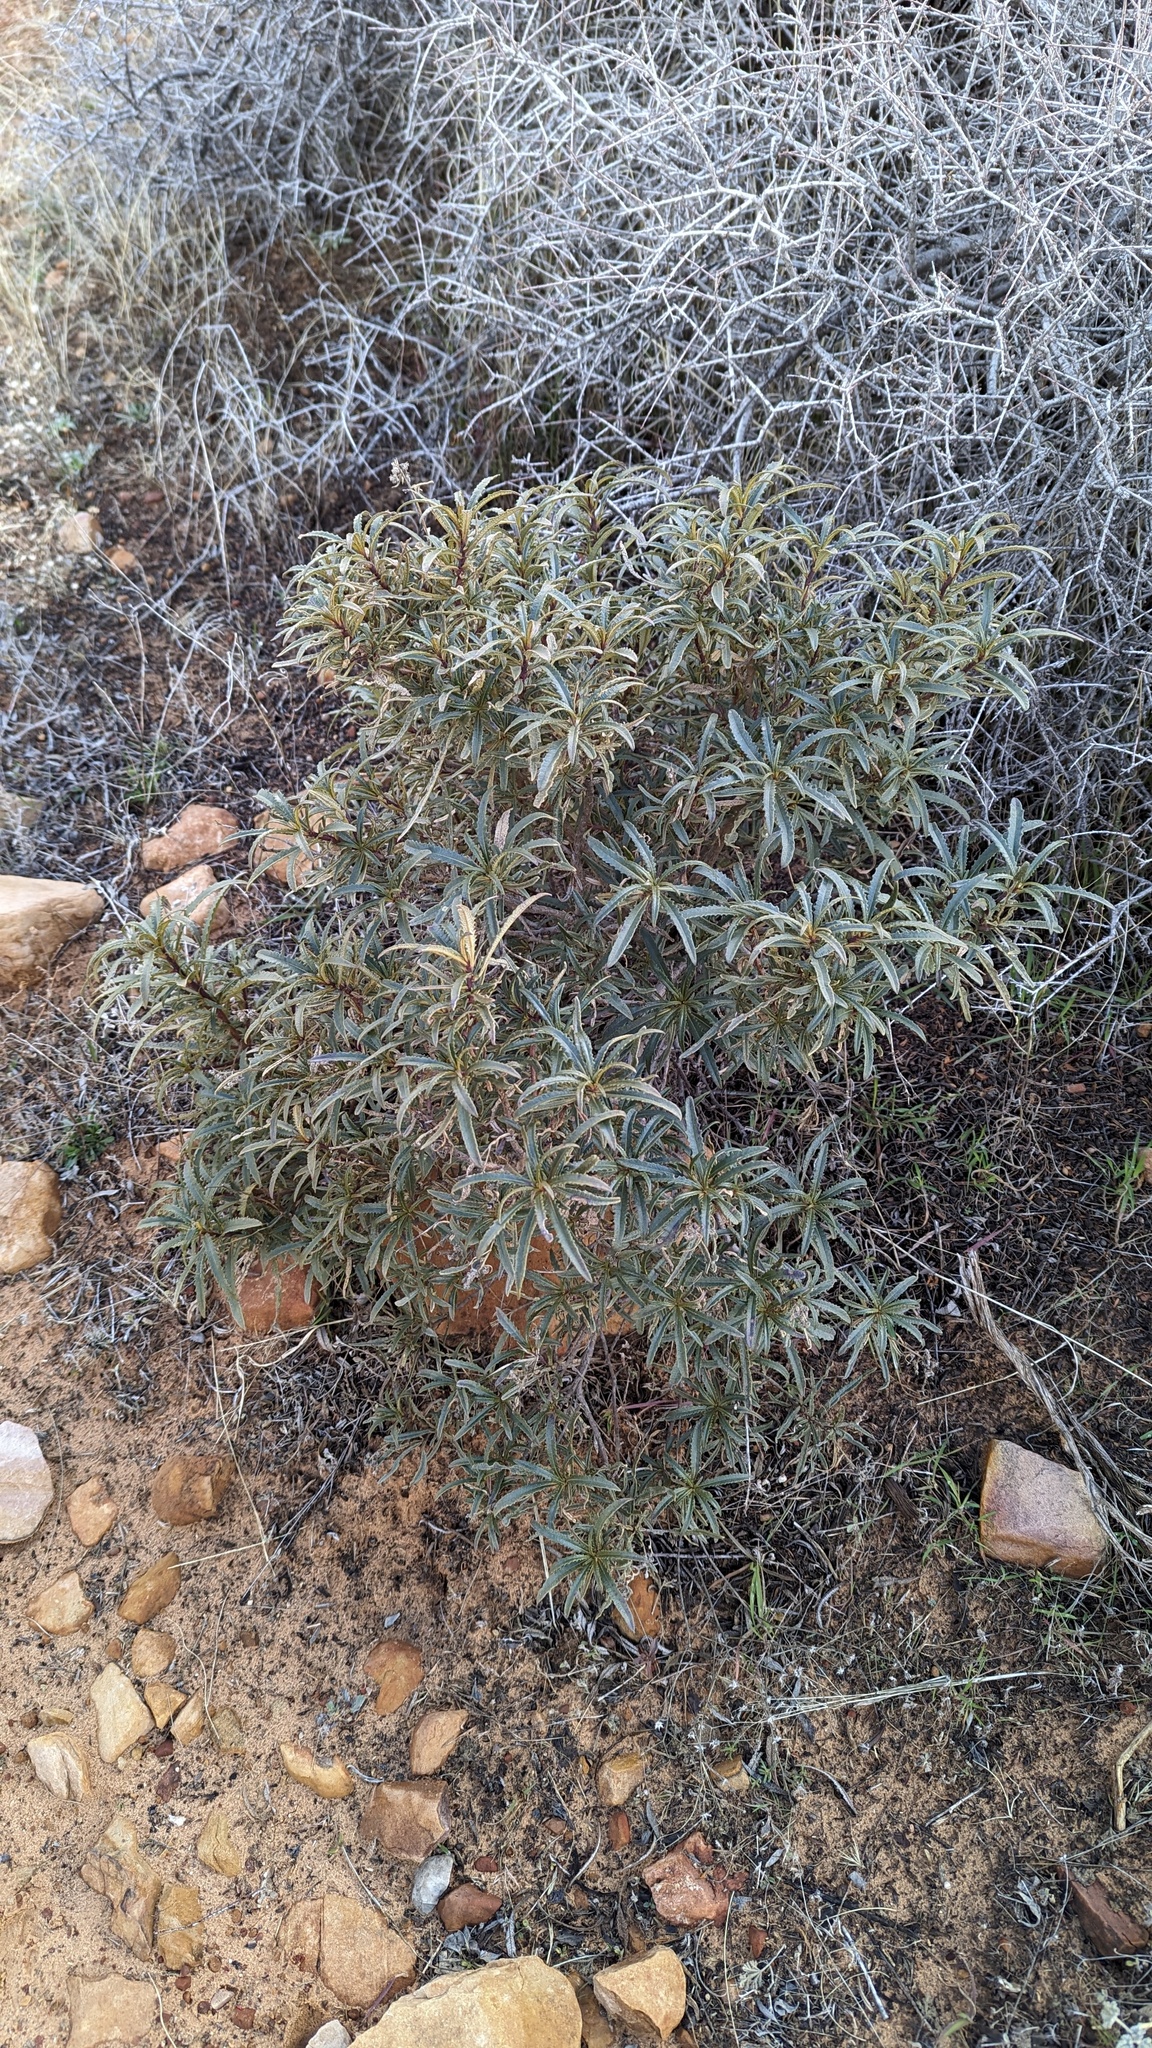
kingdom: Plantae
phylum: Tracheophyta
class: Magnoliopsida
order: Boraginales
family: Namaceae
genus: Eriodictyon
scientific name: Eriodictyon angustifolium
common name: Narrow-leaf yerba santa
